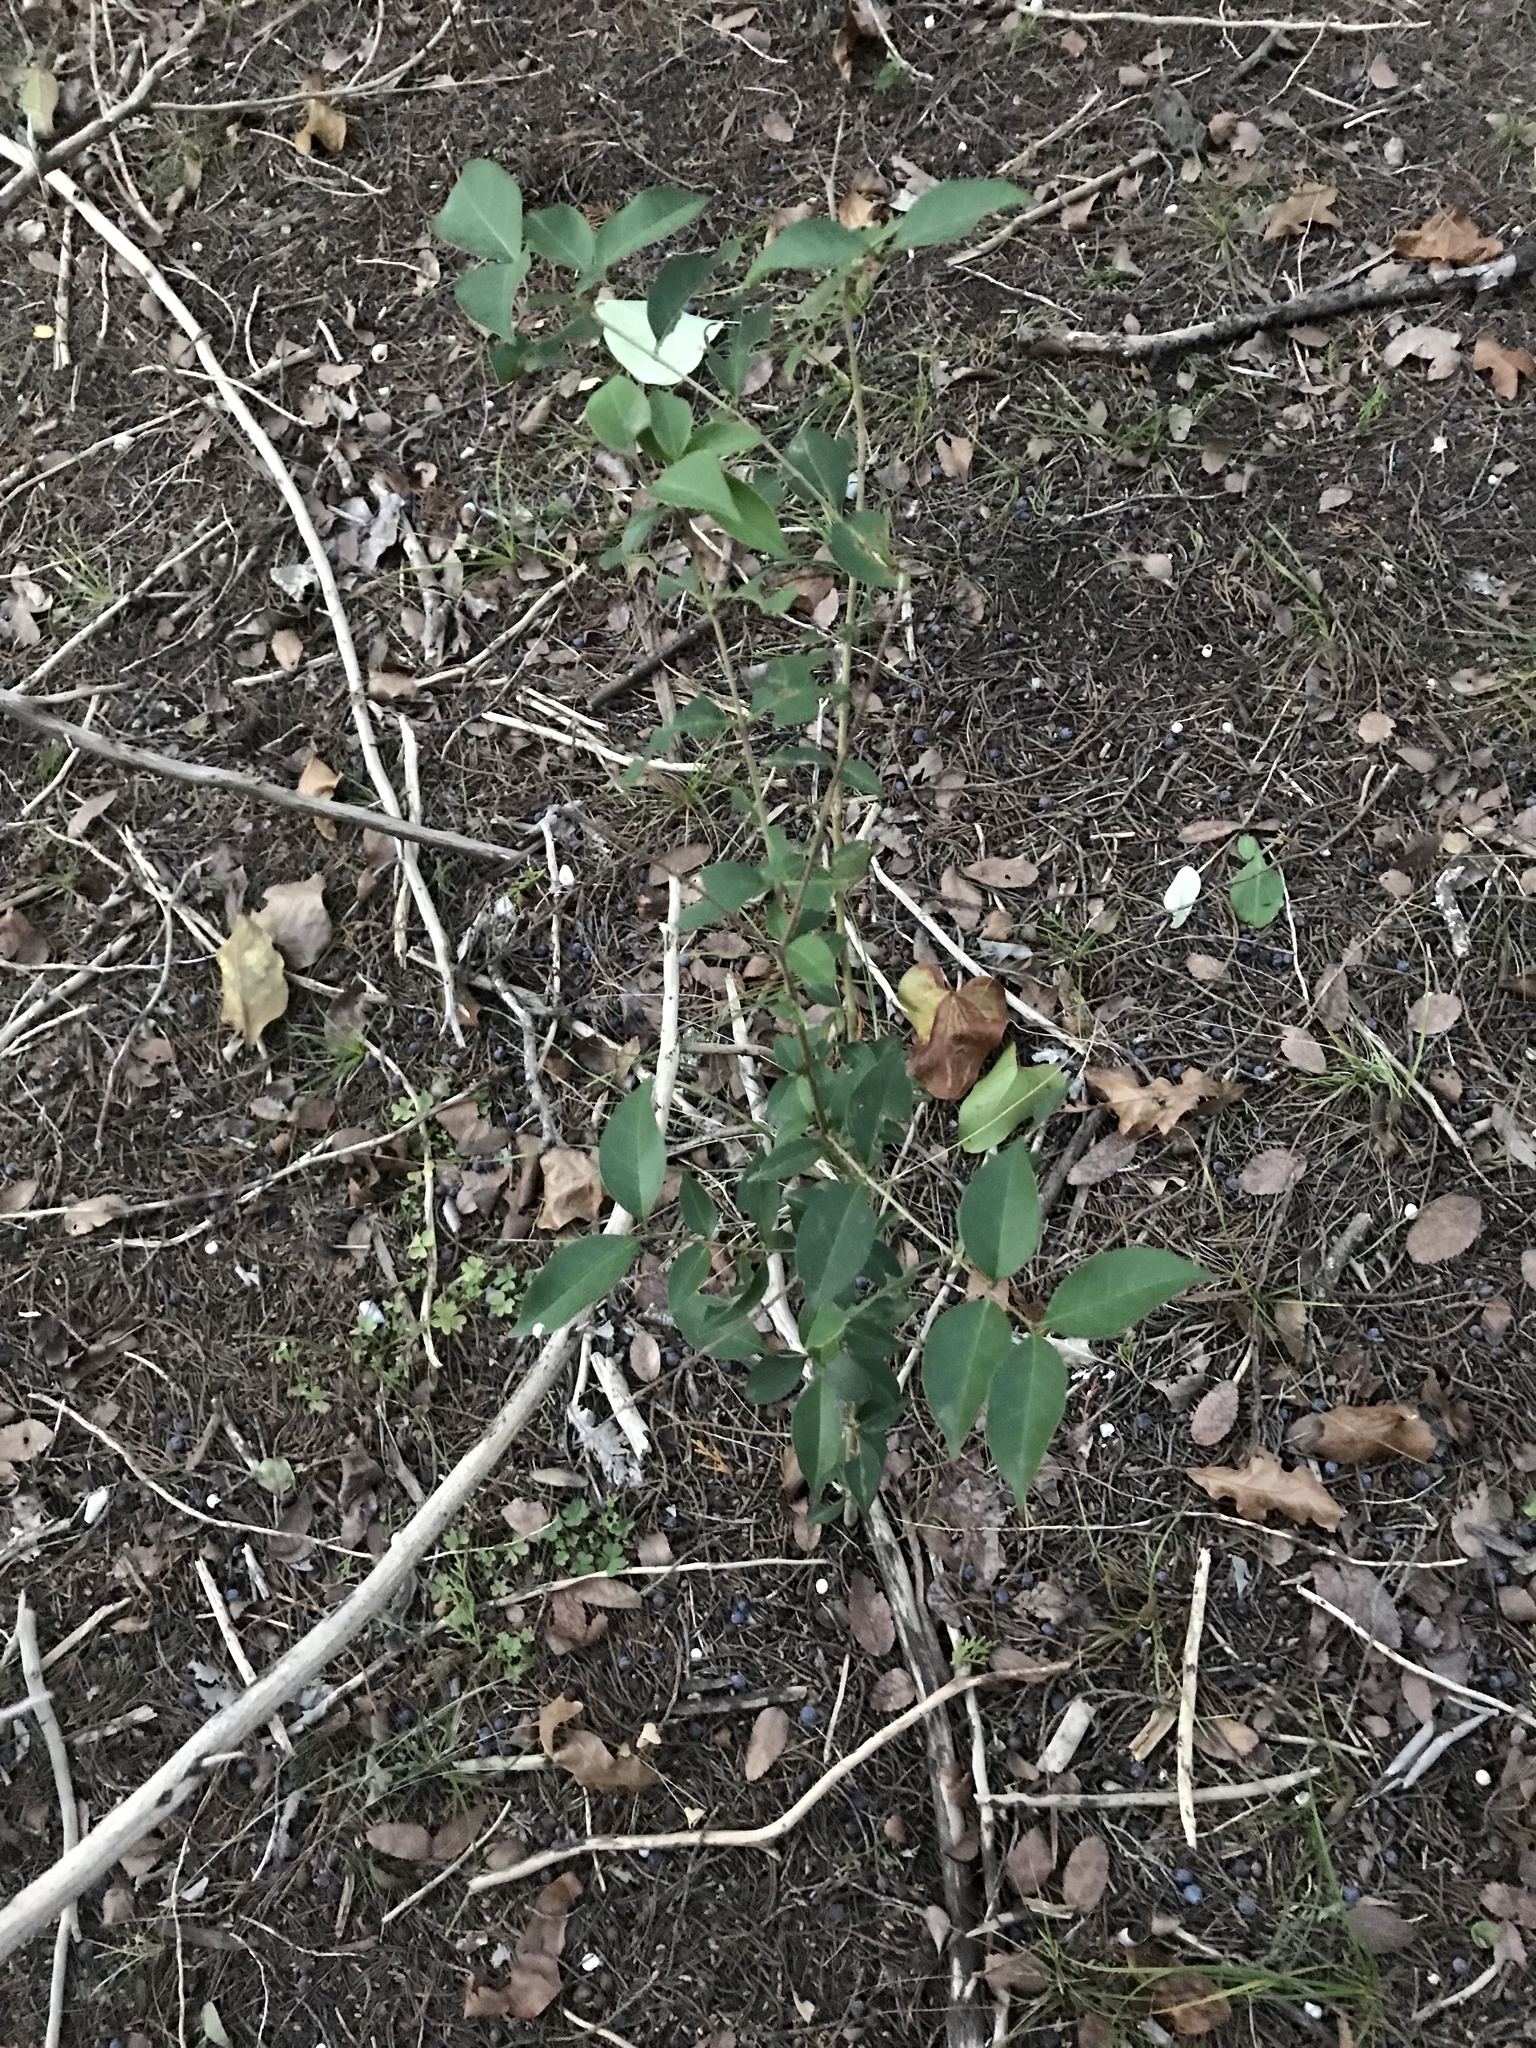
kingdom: Plantae
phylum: Tracheophyta
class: Magnoliopsida
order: Lamiales
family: Oleaceae
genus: Ligustrum
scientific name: Ligustrum lucidum
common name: Glossy privet
